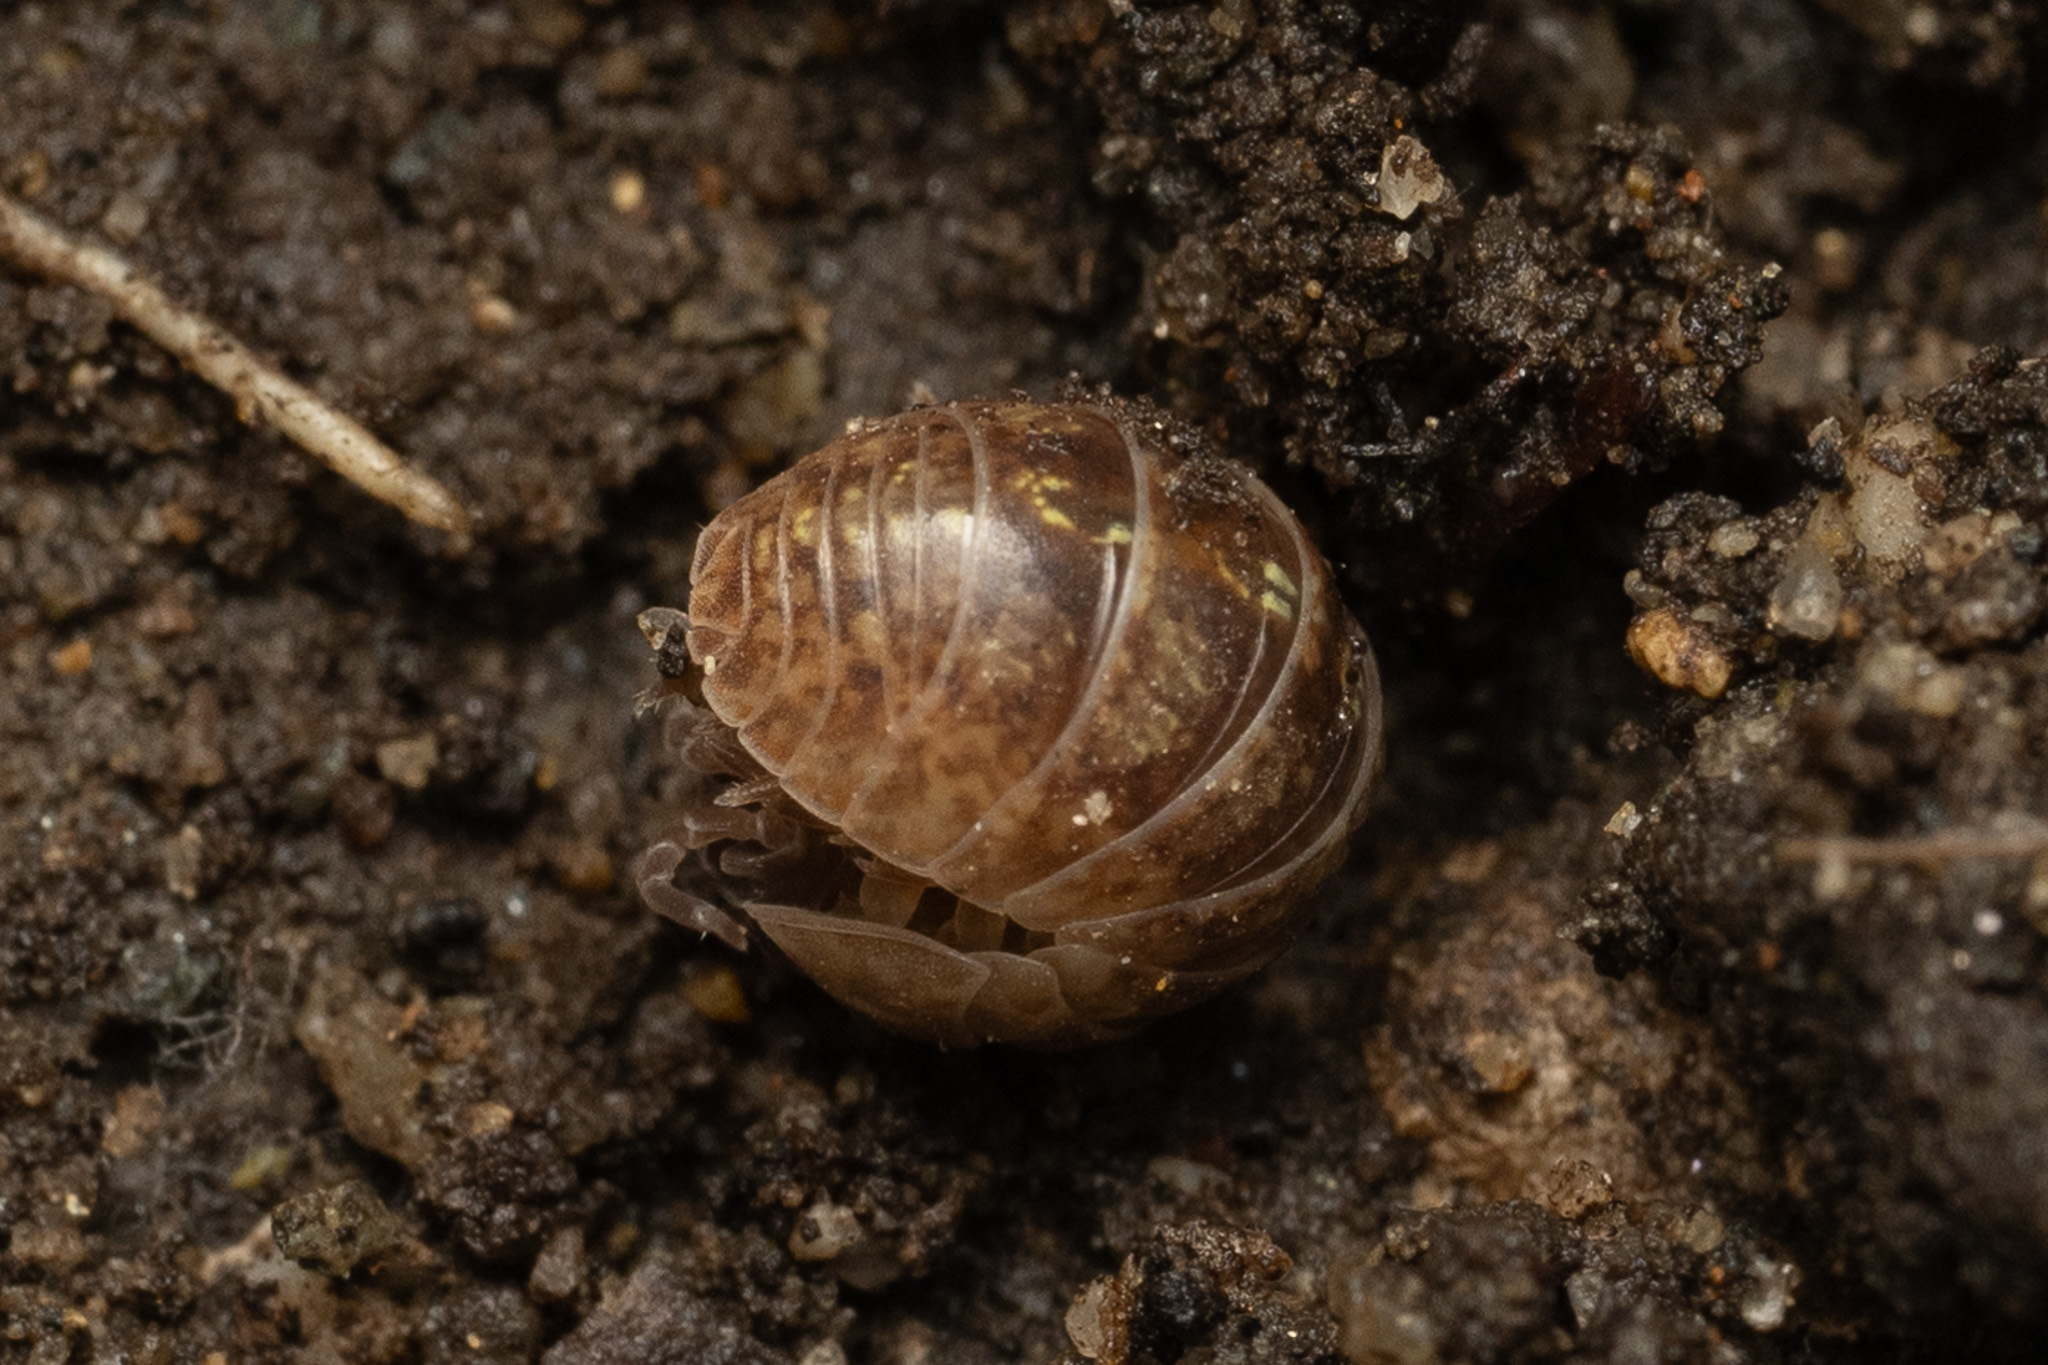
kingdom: Animalia
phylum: Arthropoda
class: Malacostraca
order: Isopoda
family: Armadillidiidae
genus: Armadillidium
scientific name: Armadillidium vulgare
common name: Common pill woodlouse
